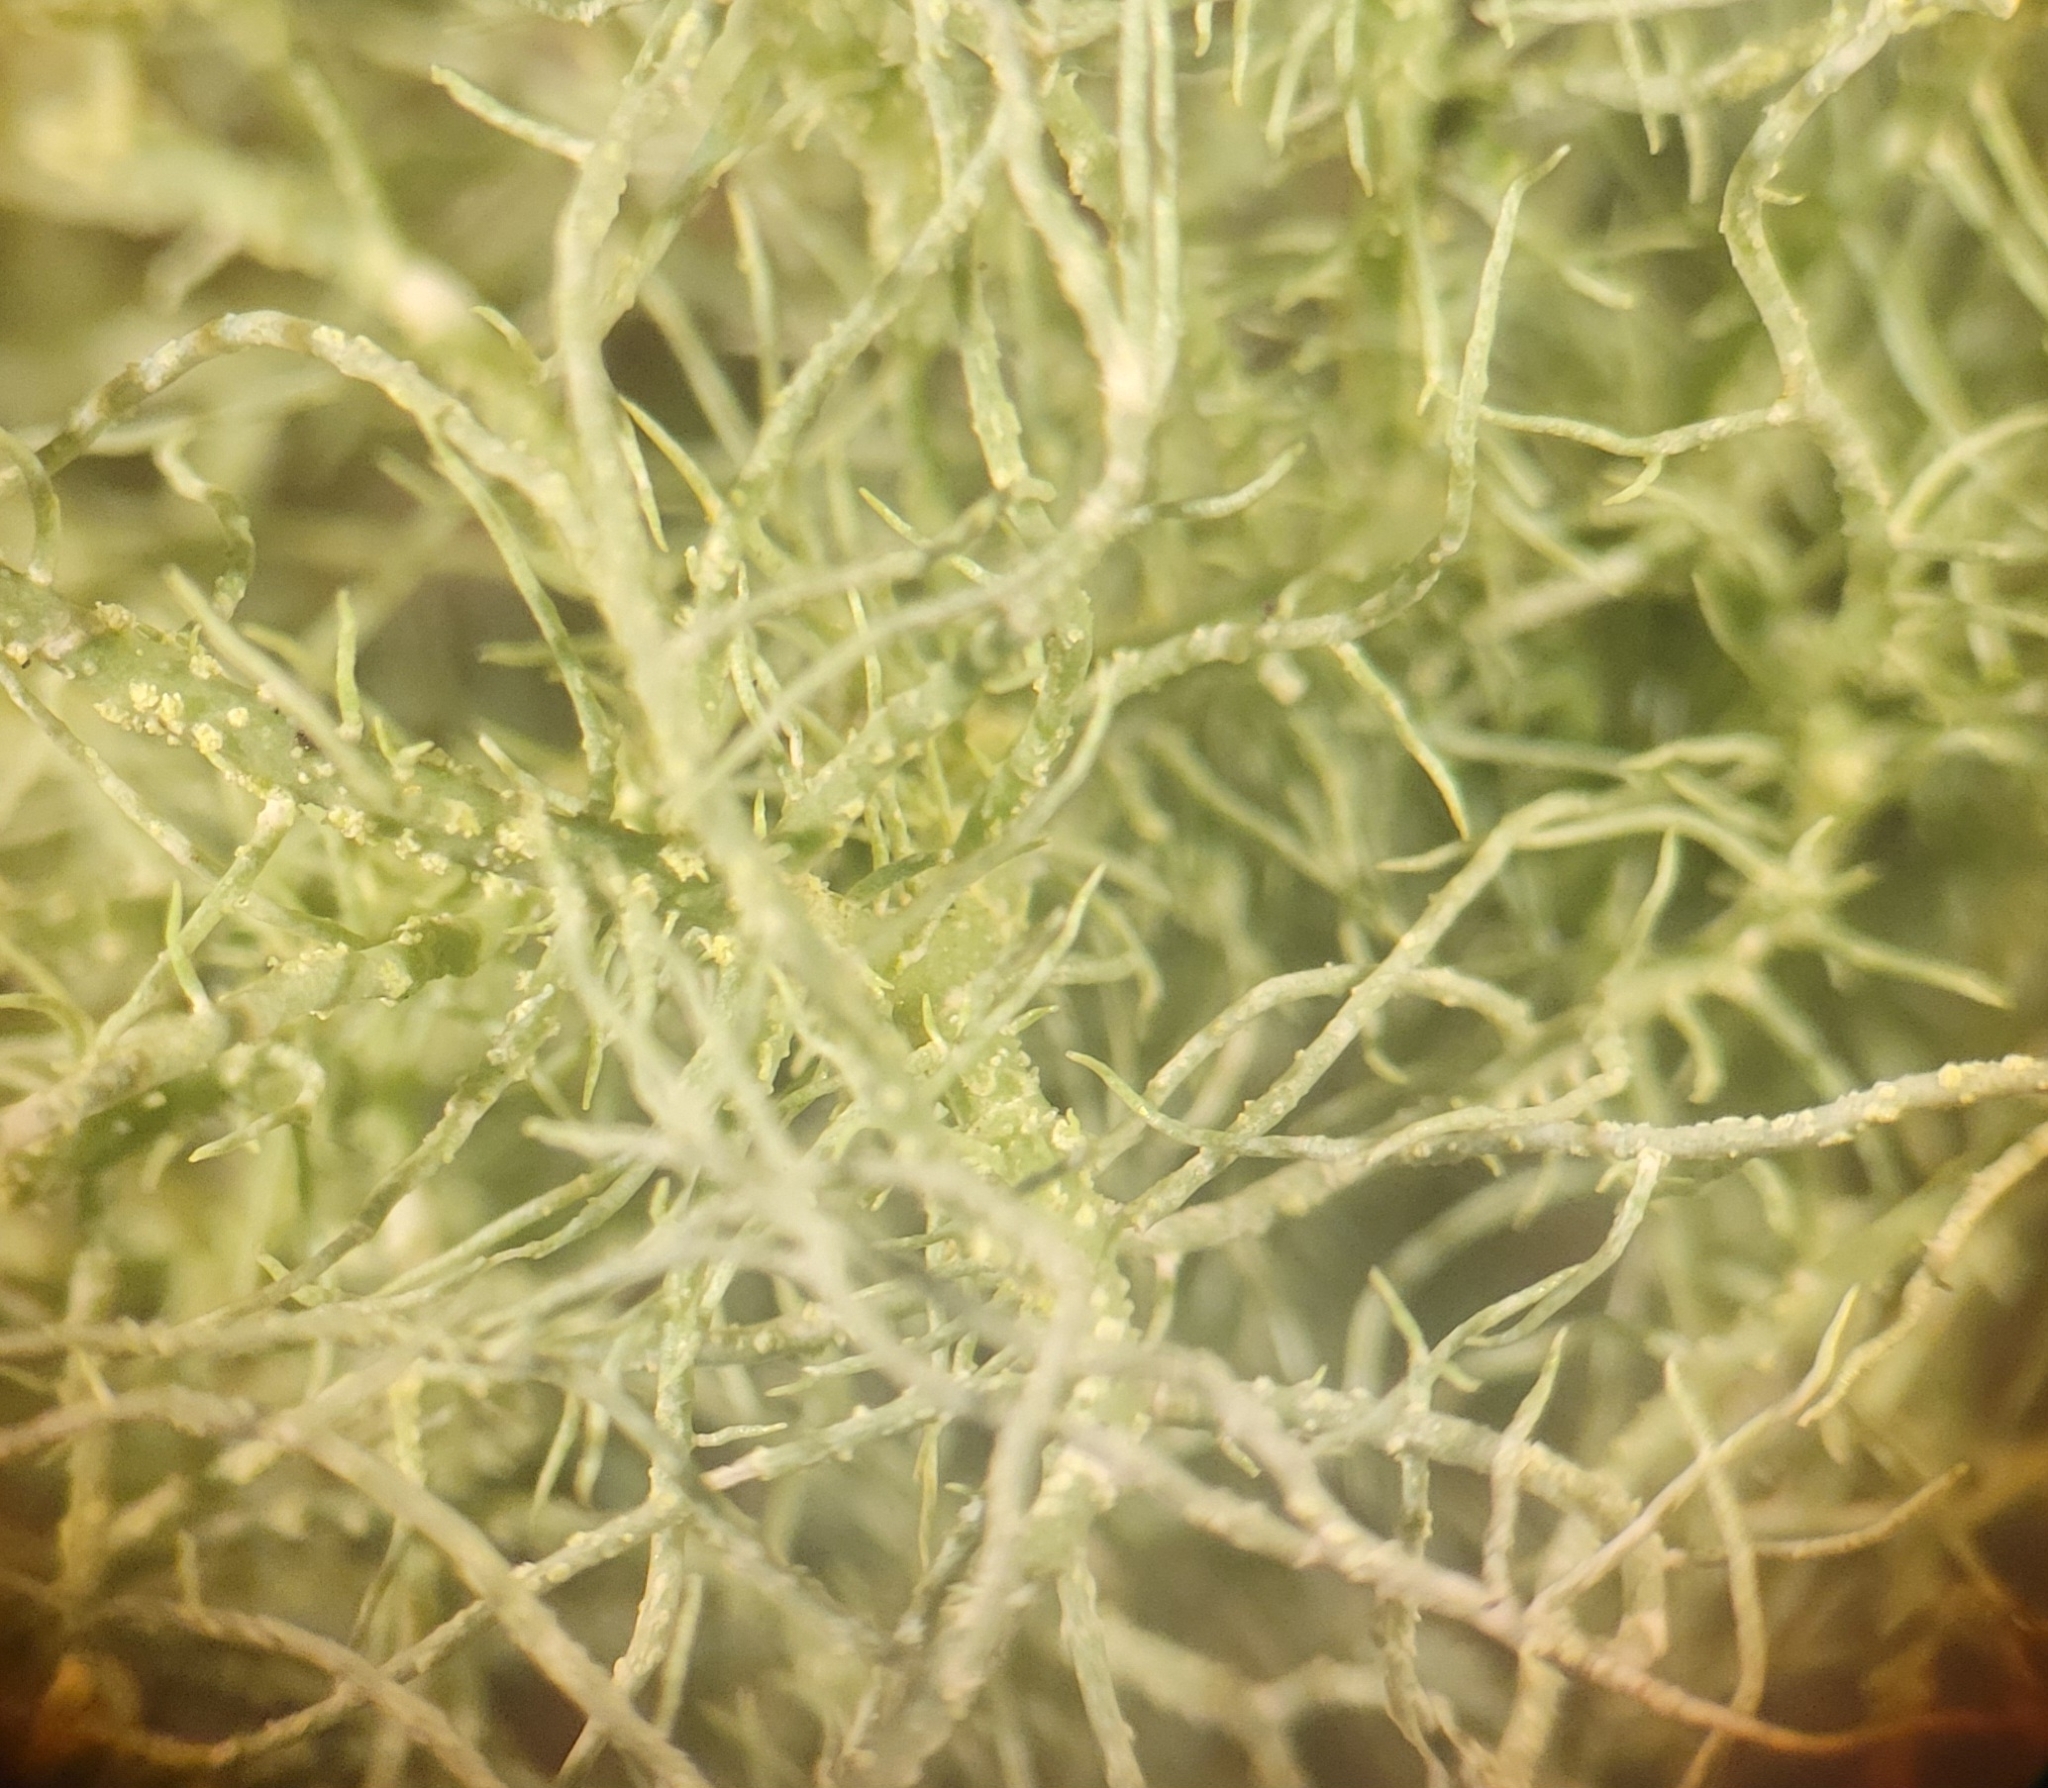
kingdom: Fungi
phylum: Ascomycota
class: Lecanoromycetes
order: Lecanorales
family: Parmeliaceae
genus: Usnea
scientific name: Usnea subfloridana
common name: Boreal beard lichen
